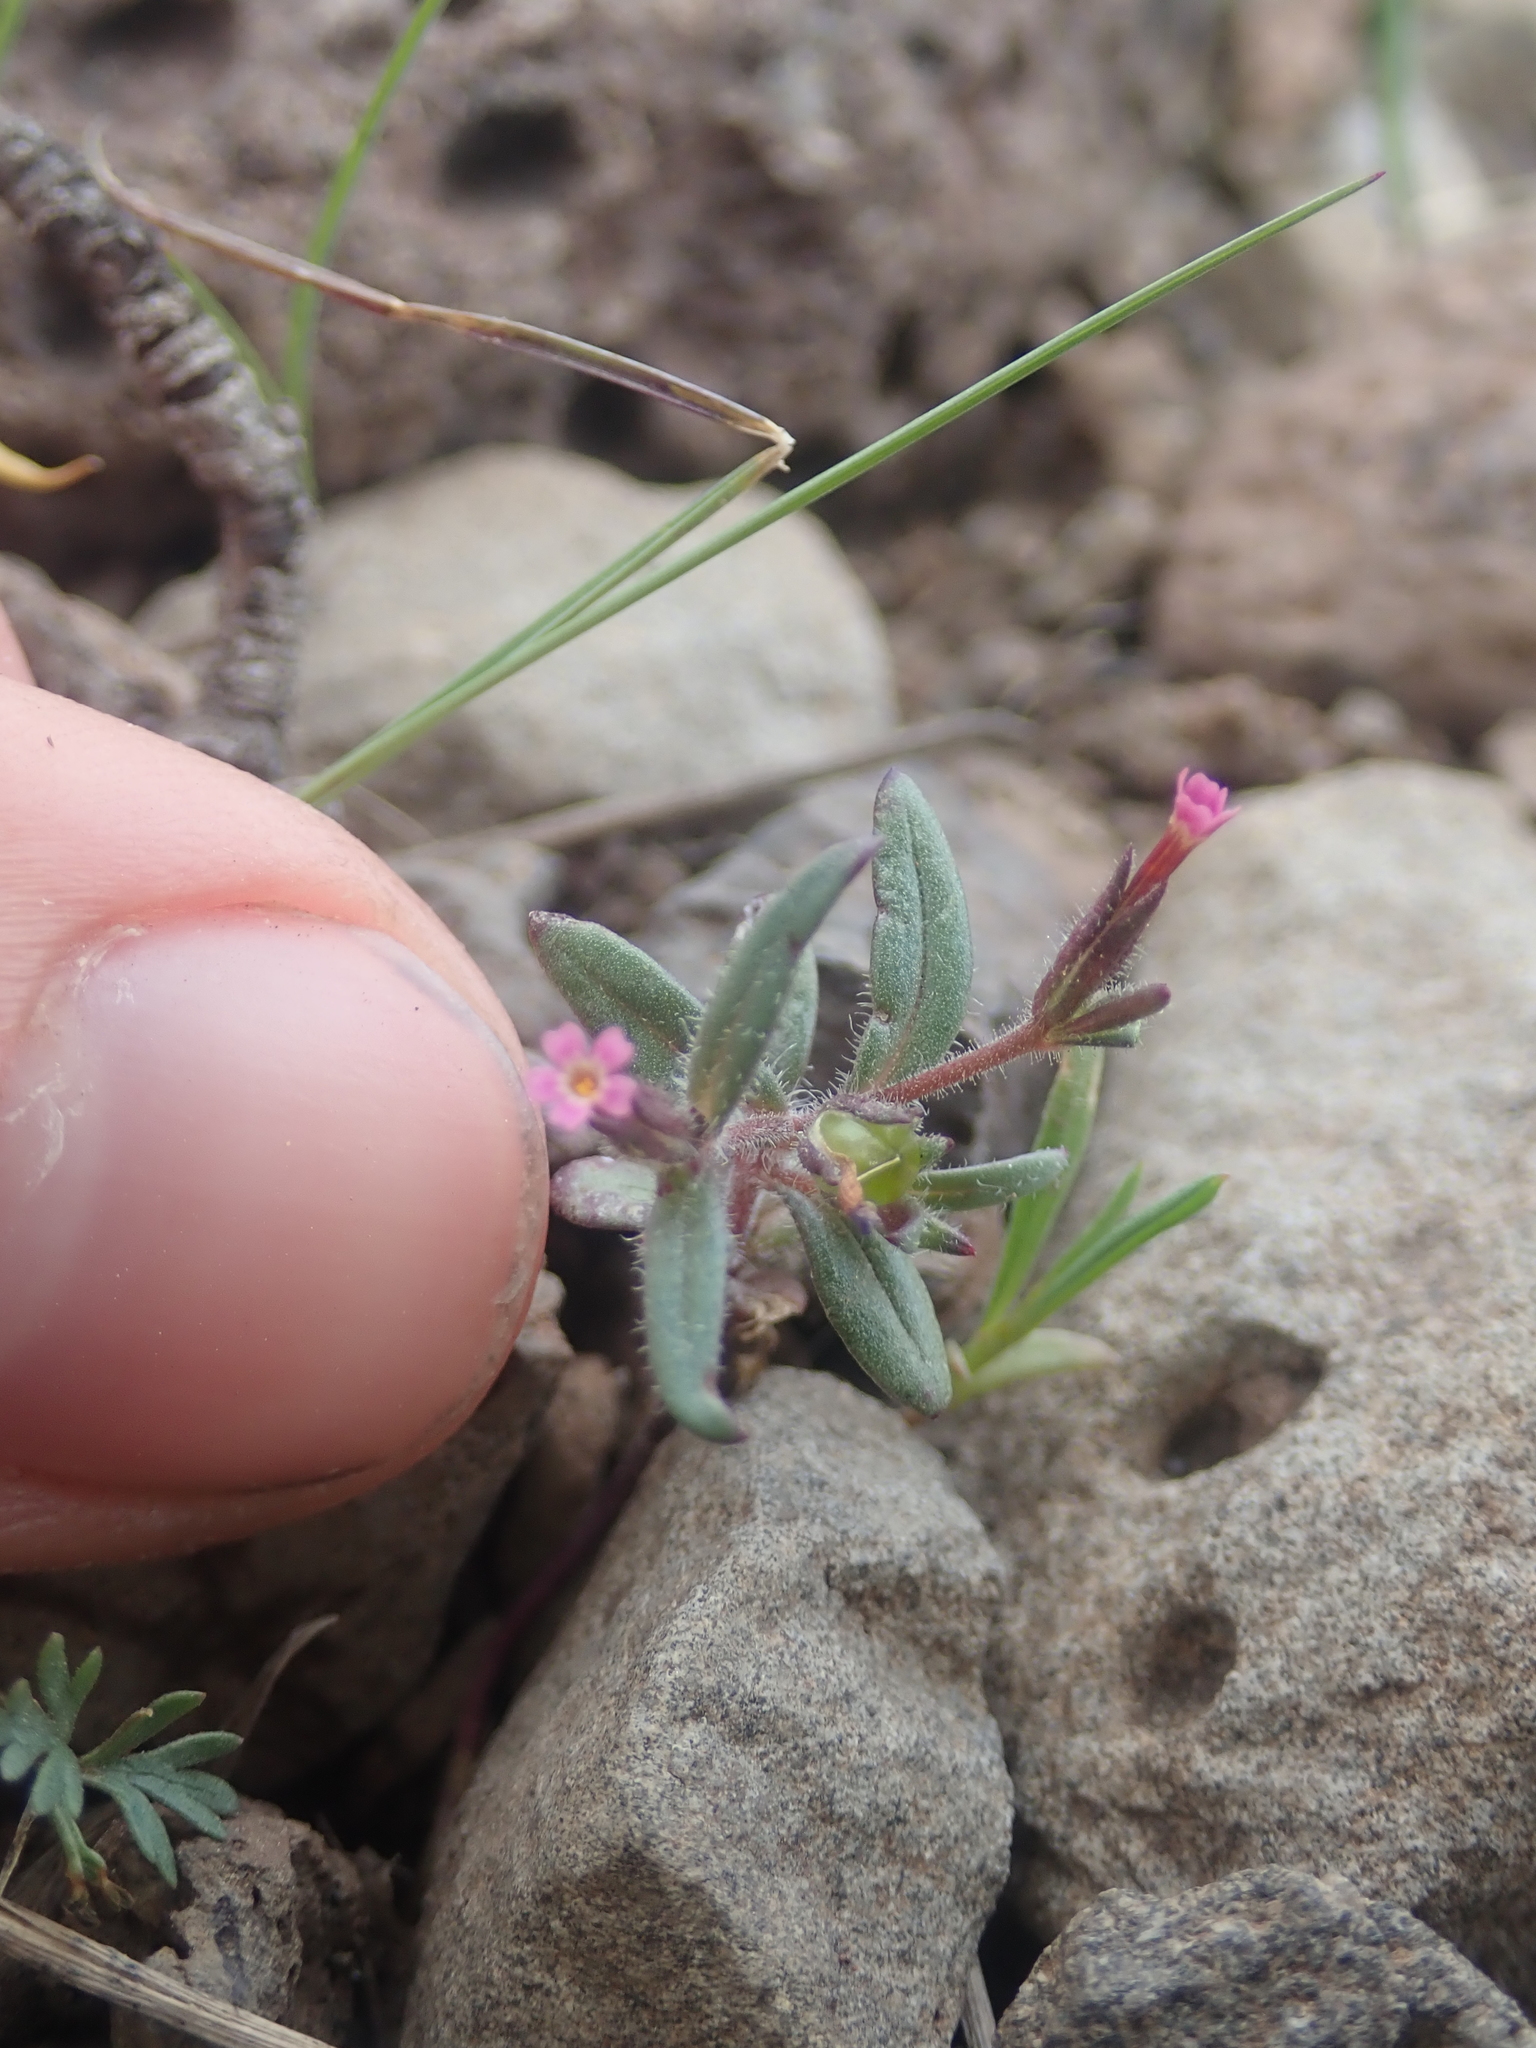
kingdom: Plantae
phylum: Tracheophyta
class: Magnoliopsida
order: Ericales
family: Polemoniaceae
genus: Phlox
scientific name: Phlox gracilis
